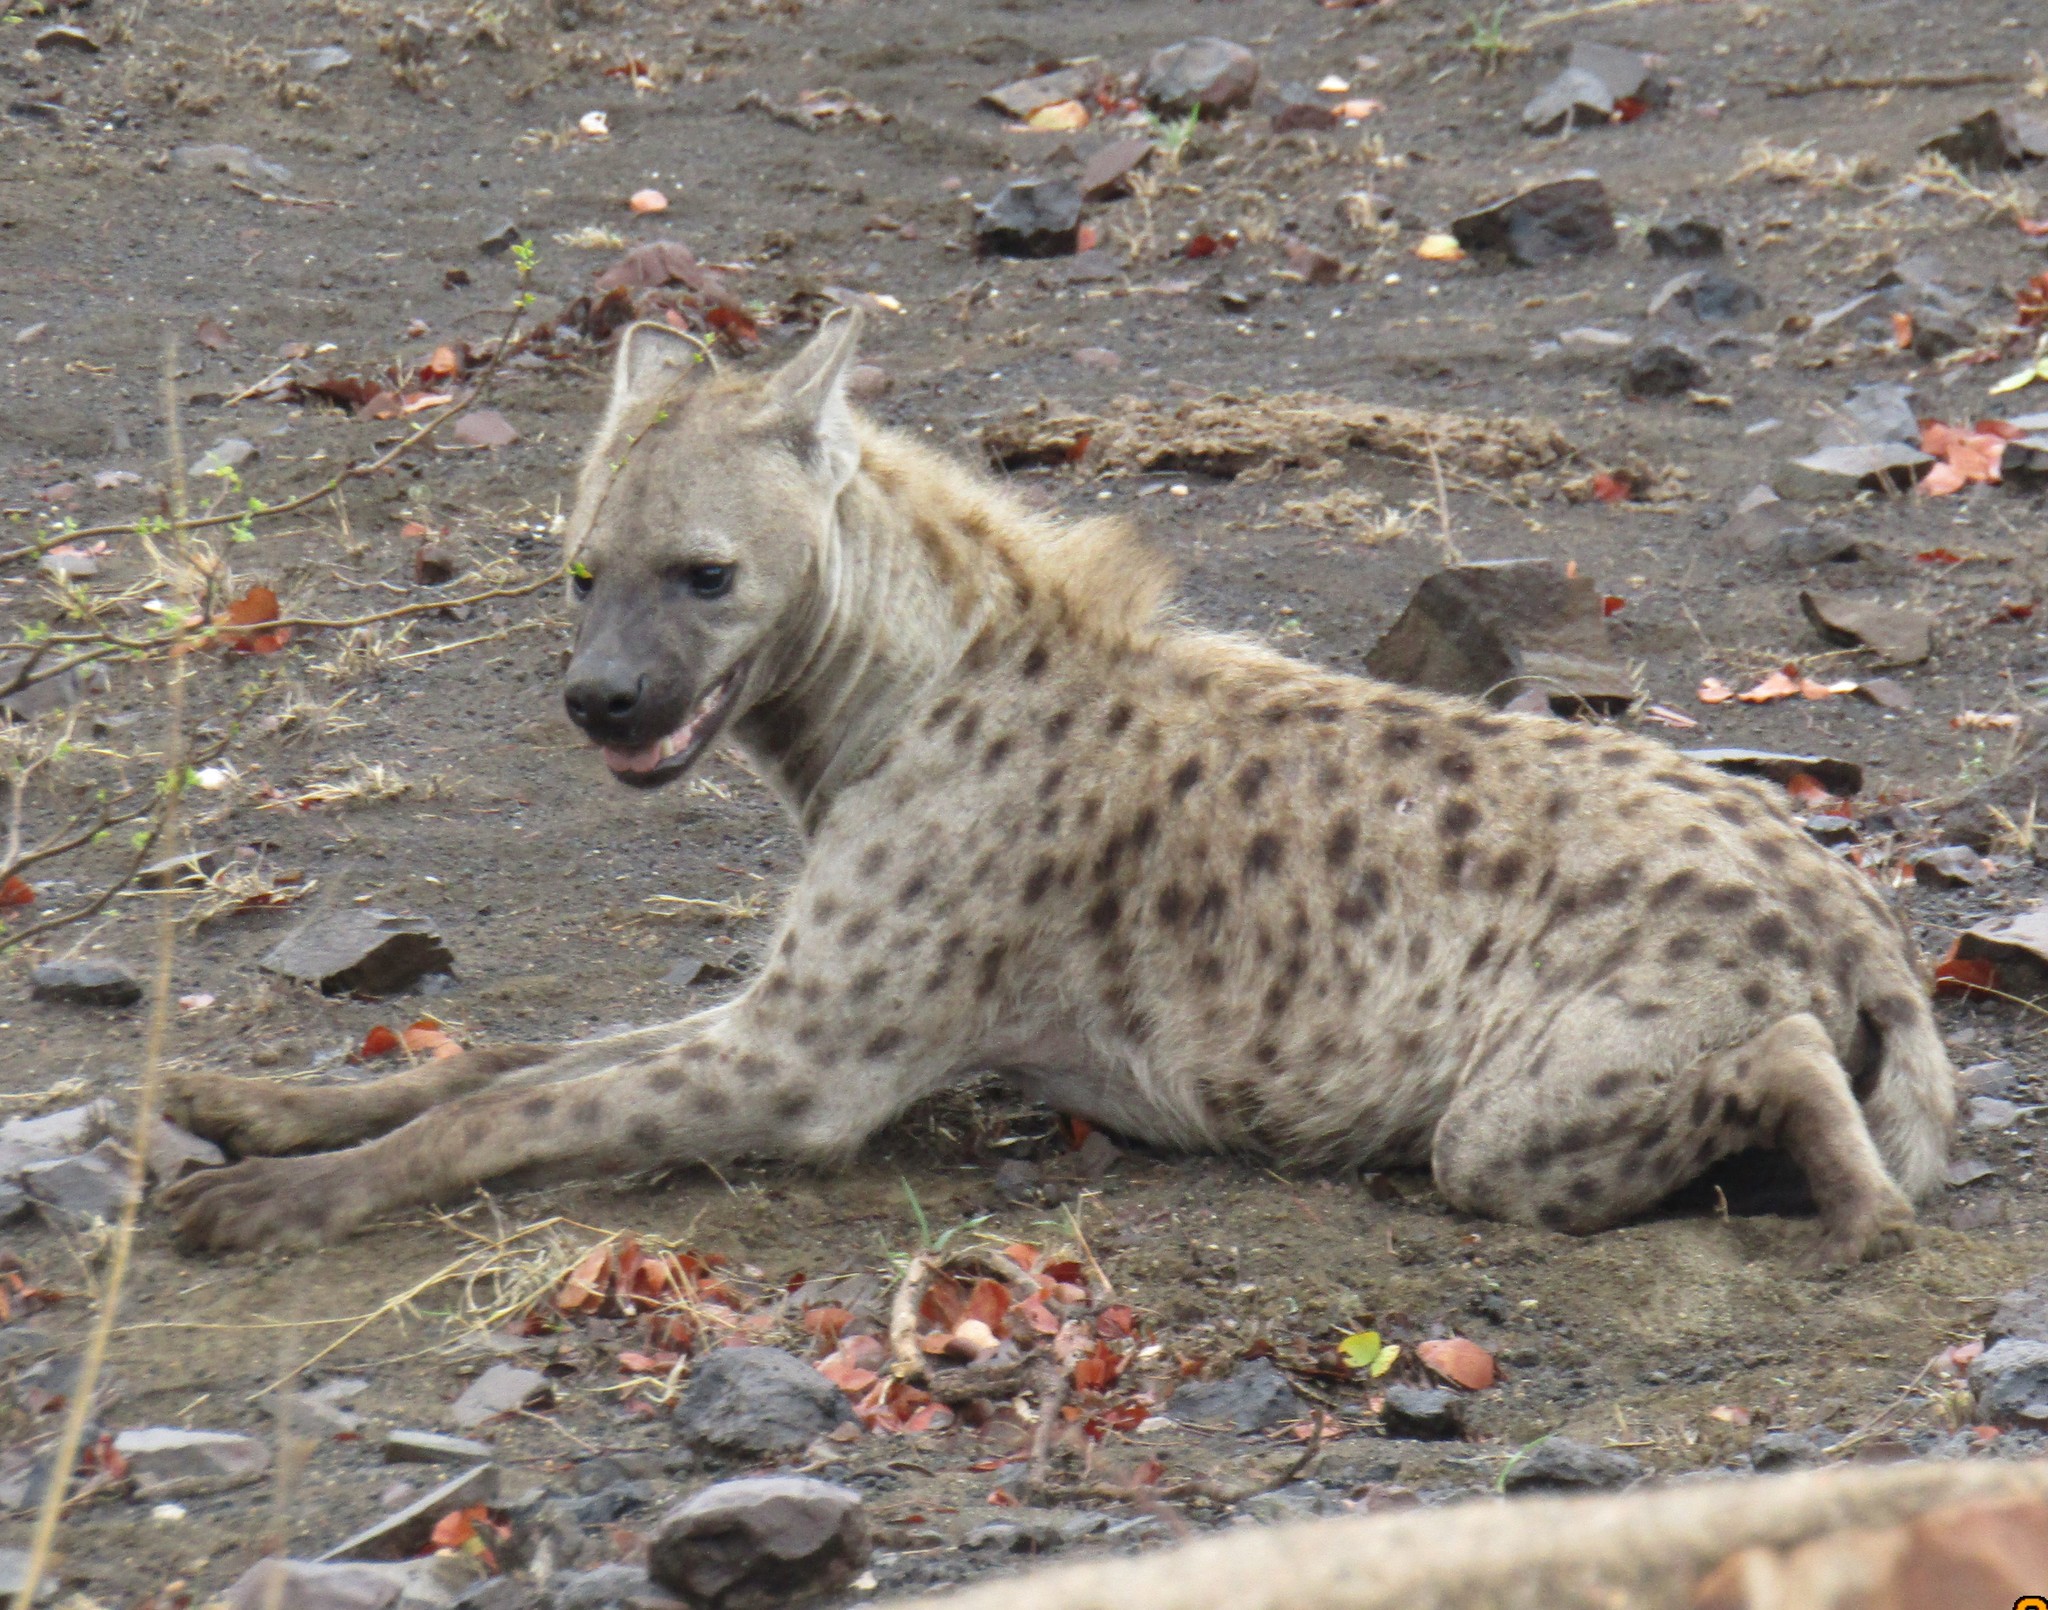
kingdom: Animalia
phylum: Chordata
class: Mammalia
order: Carnivora
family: Hyaenidae
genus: Crocuta
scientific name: Crocuta crocuta
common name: Spotted hyaena
